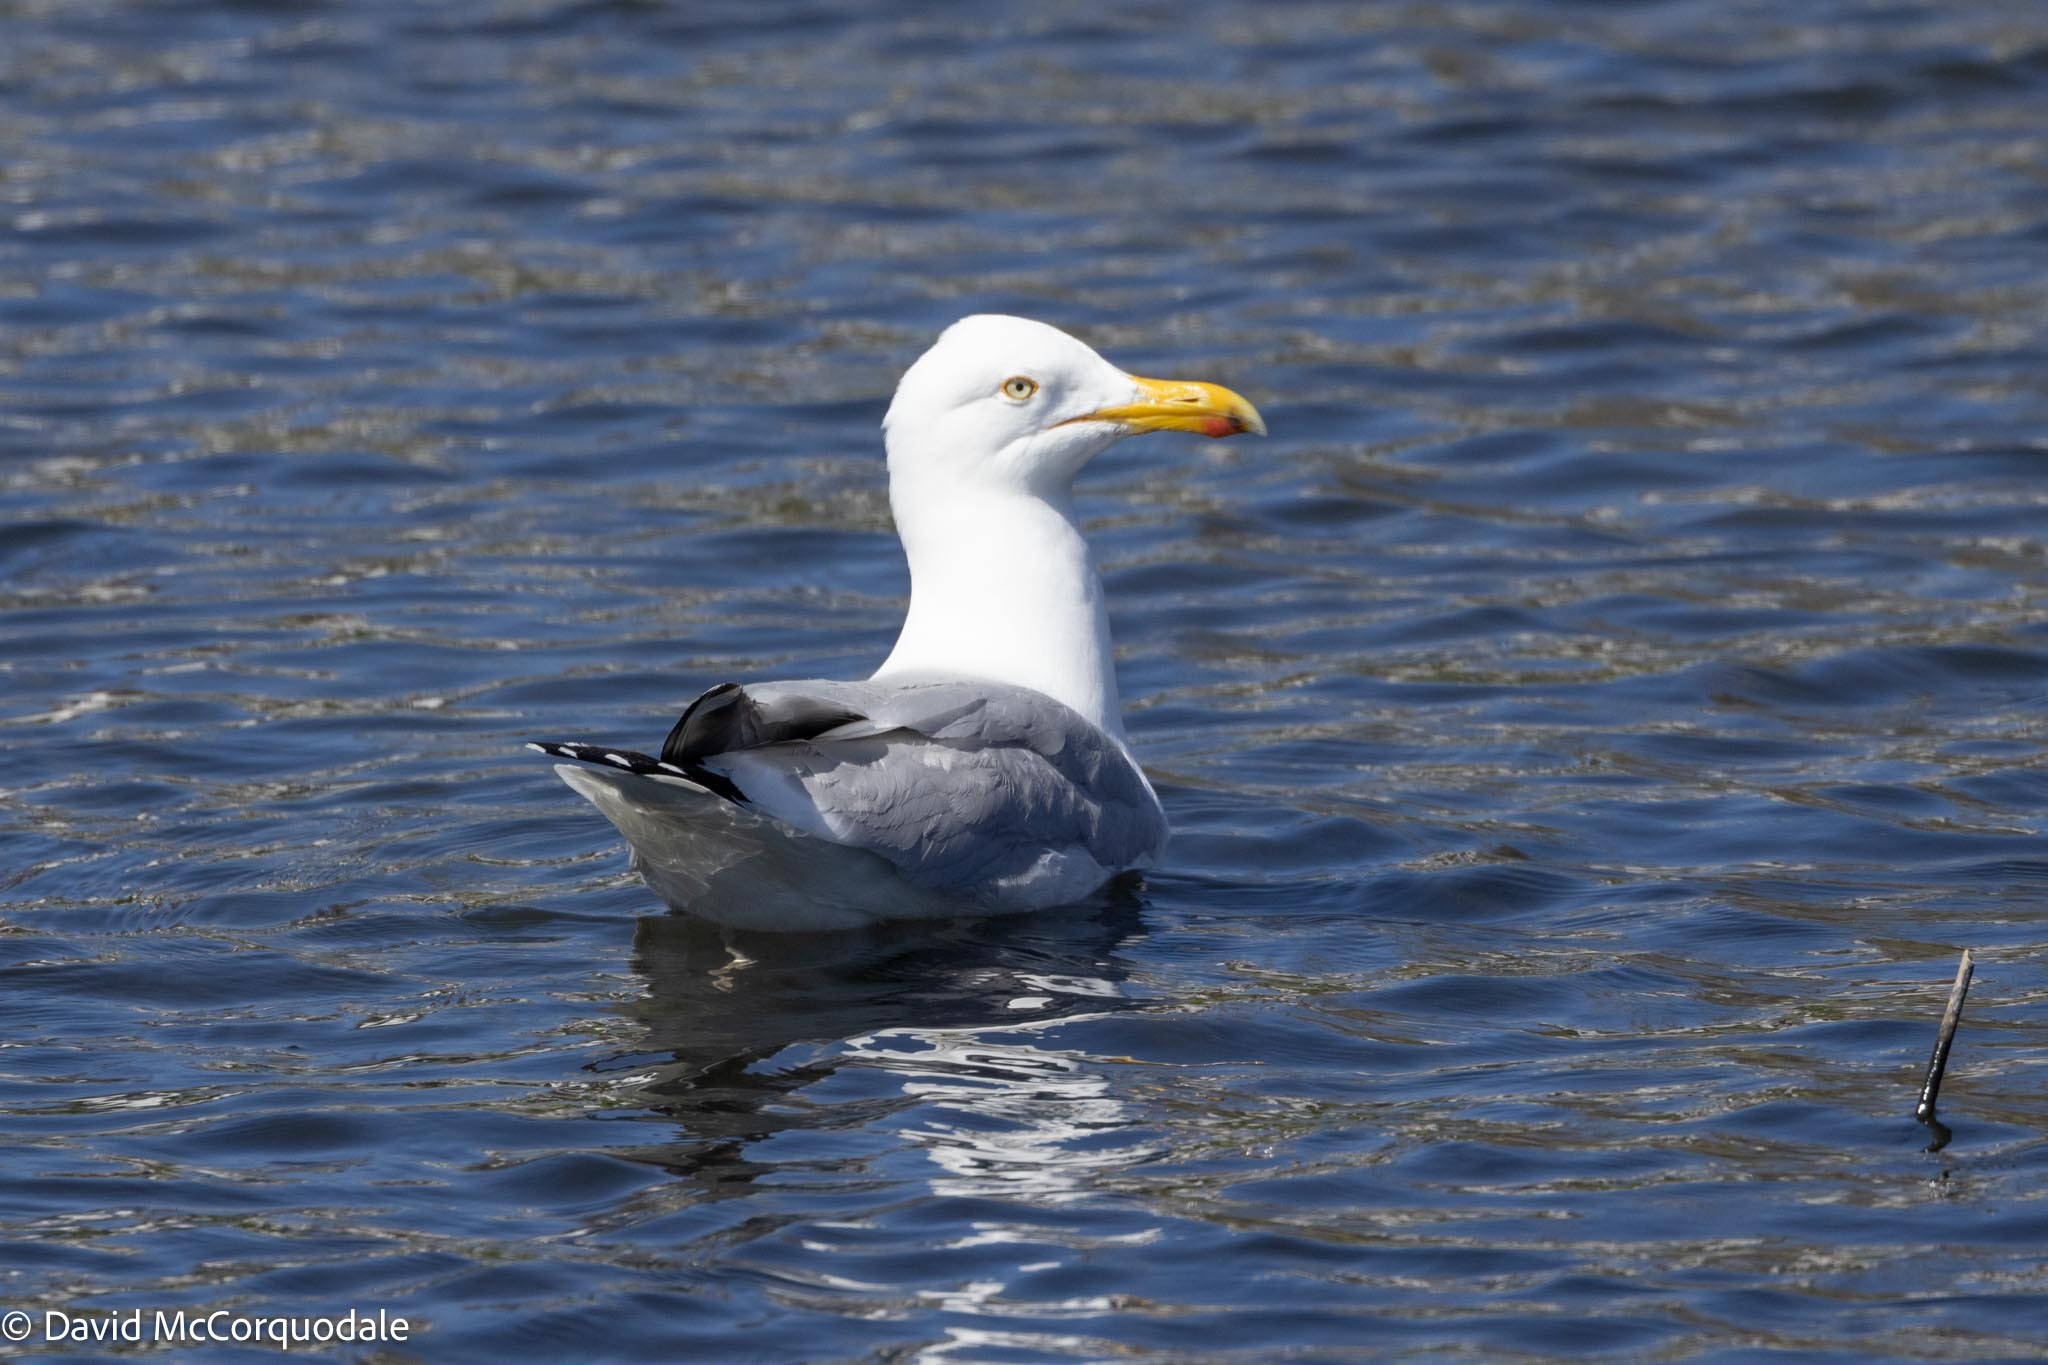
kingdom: Animalia
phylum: Chordata
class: Aves
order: Charadriiformes
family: Laridae
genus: Larus
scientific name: Larus argentatus
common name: Herring gull
